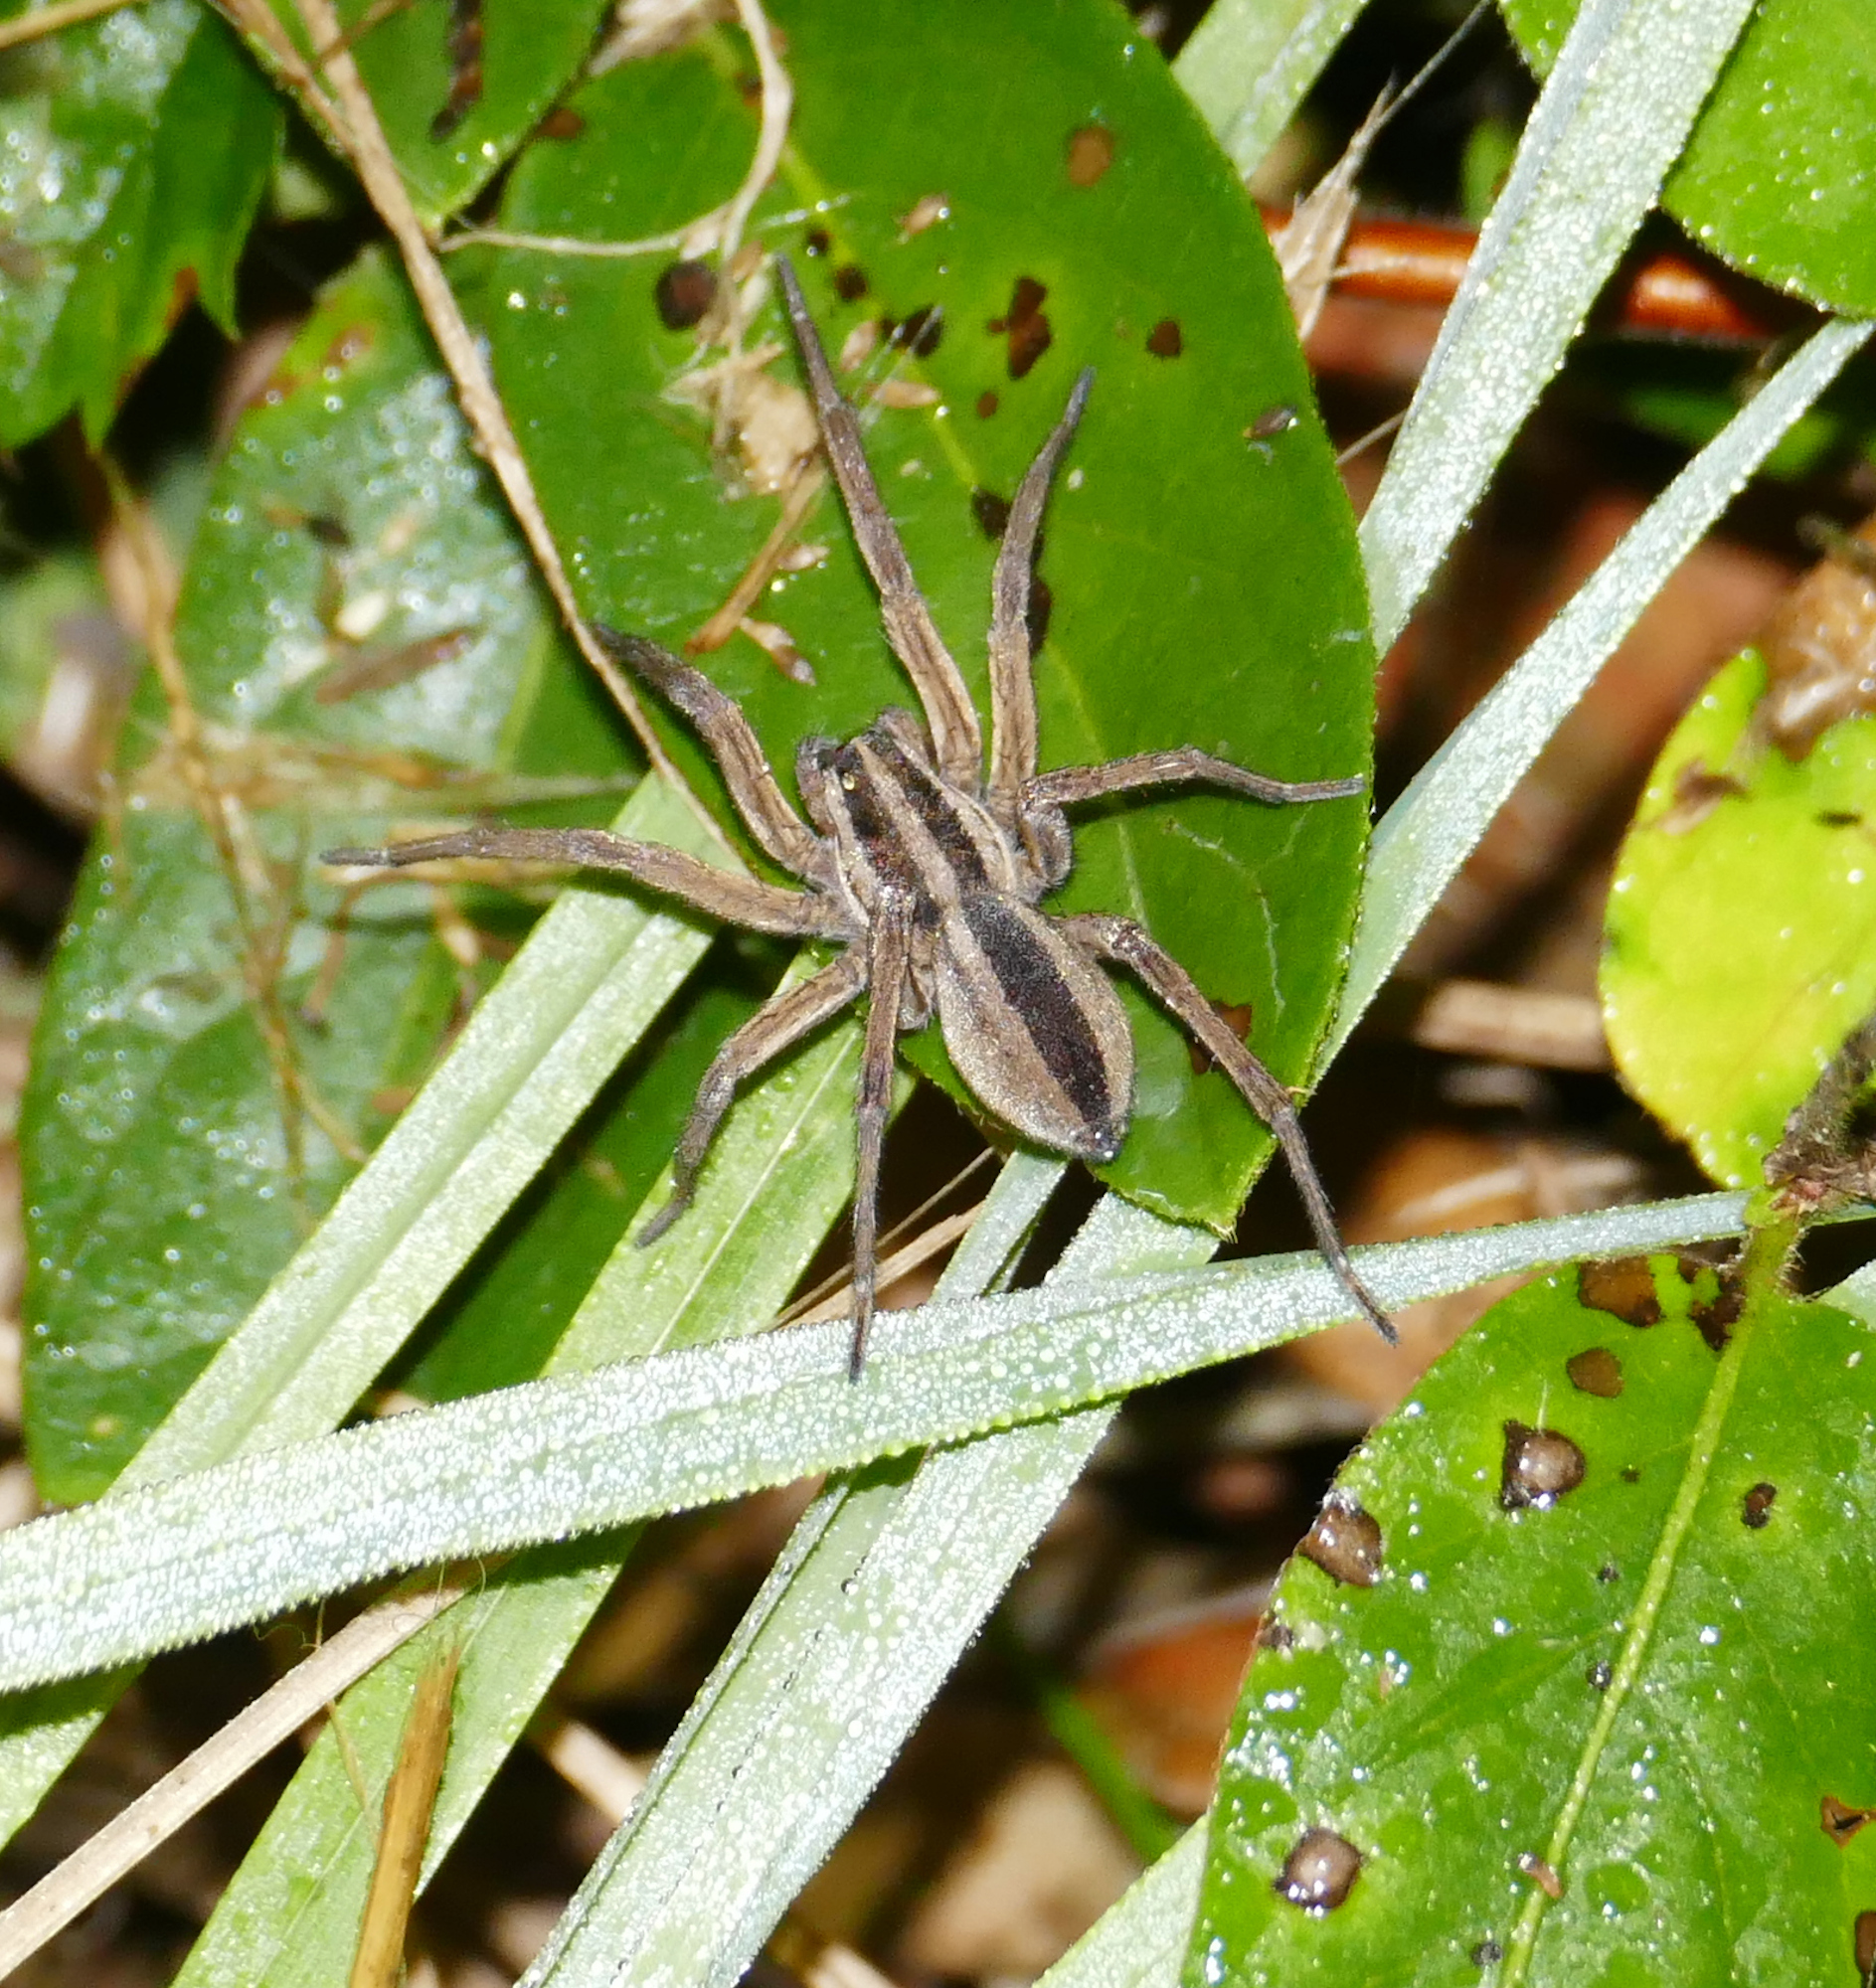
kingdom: Animalia
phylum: Arthropoda
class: Arachnida
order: Araneae
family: Lycosidae
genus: Rabidosa
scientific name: Rabidosa punctulata
